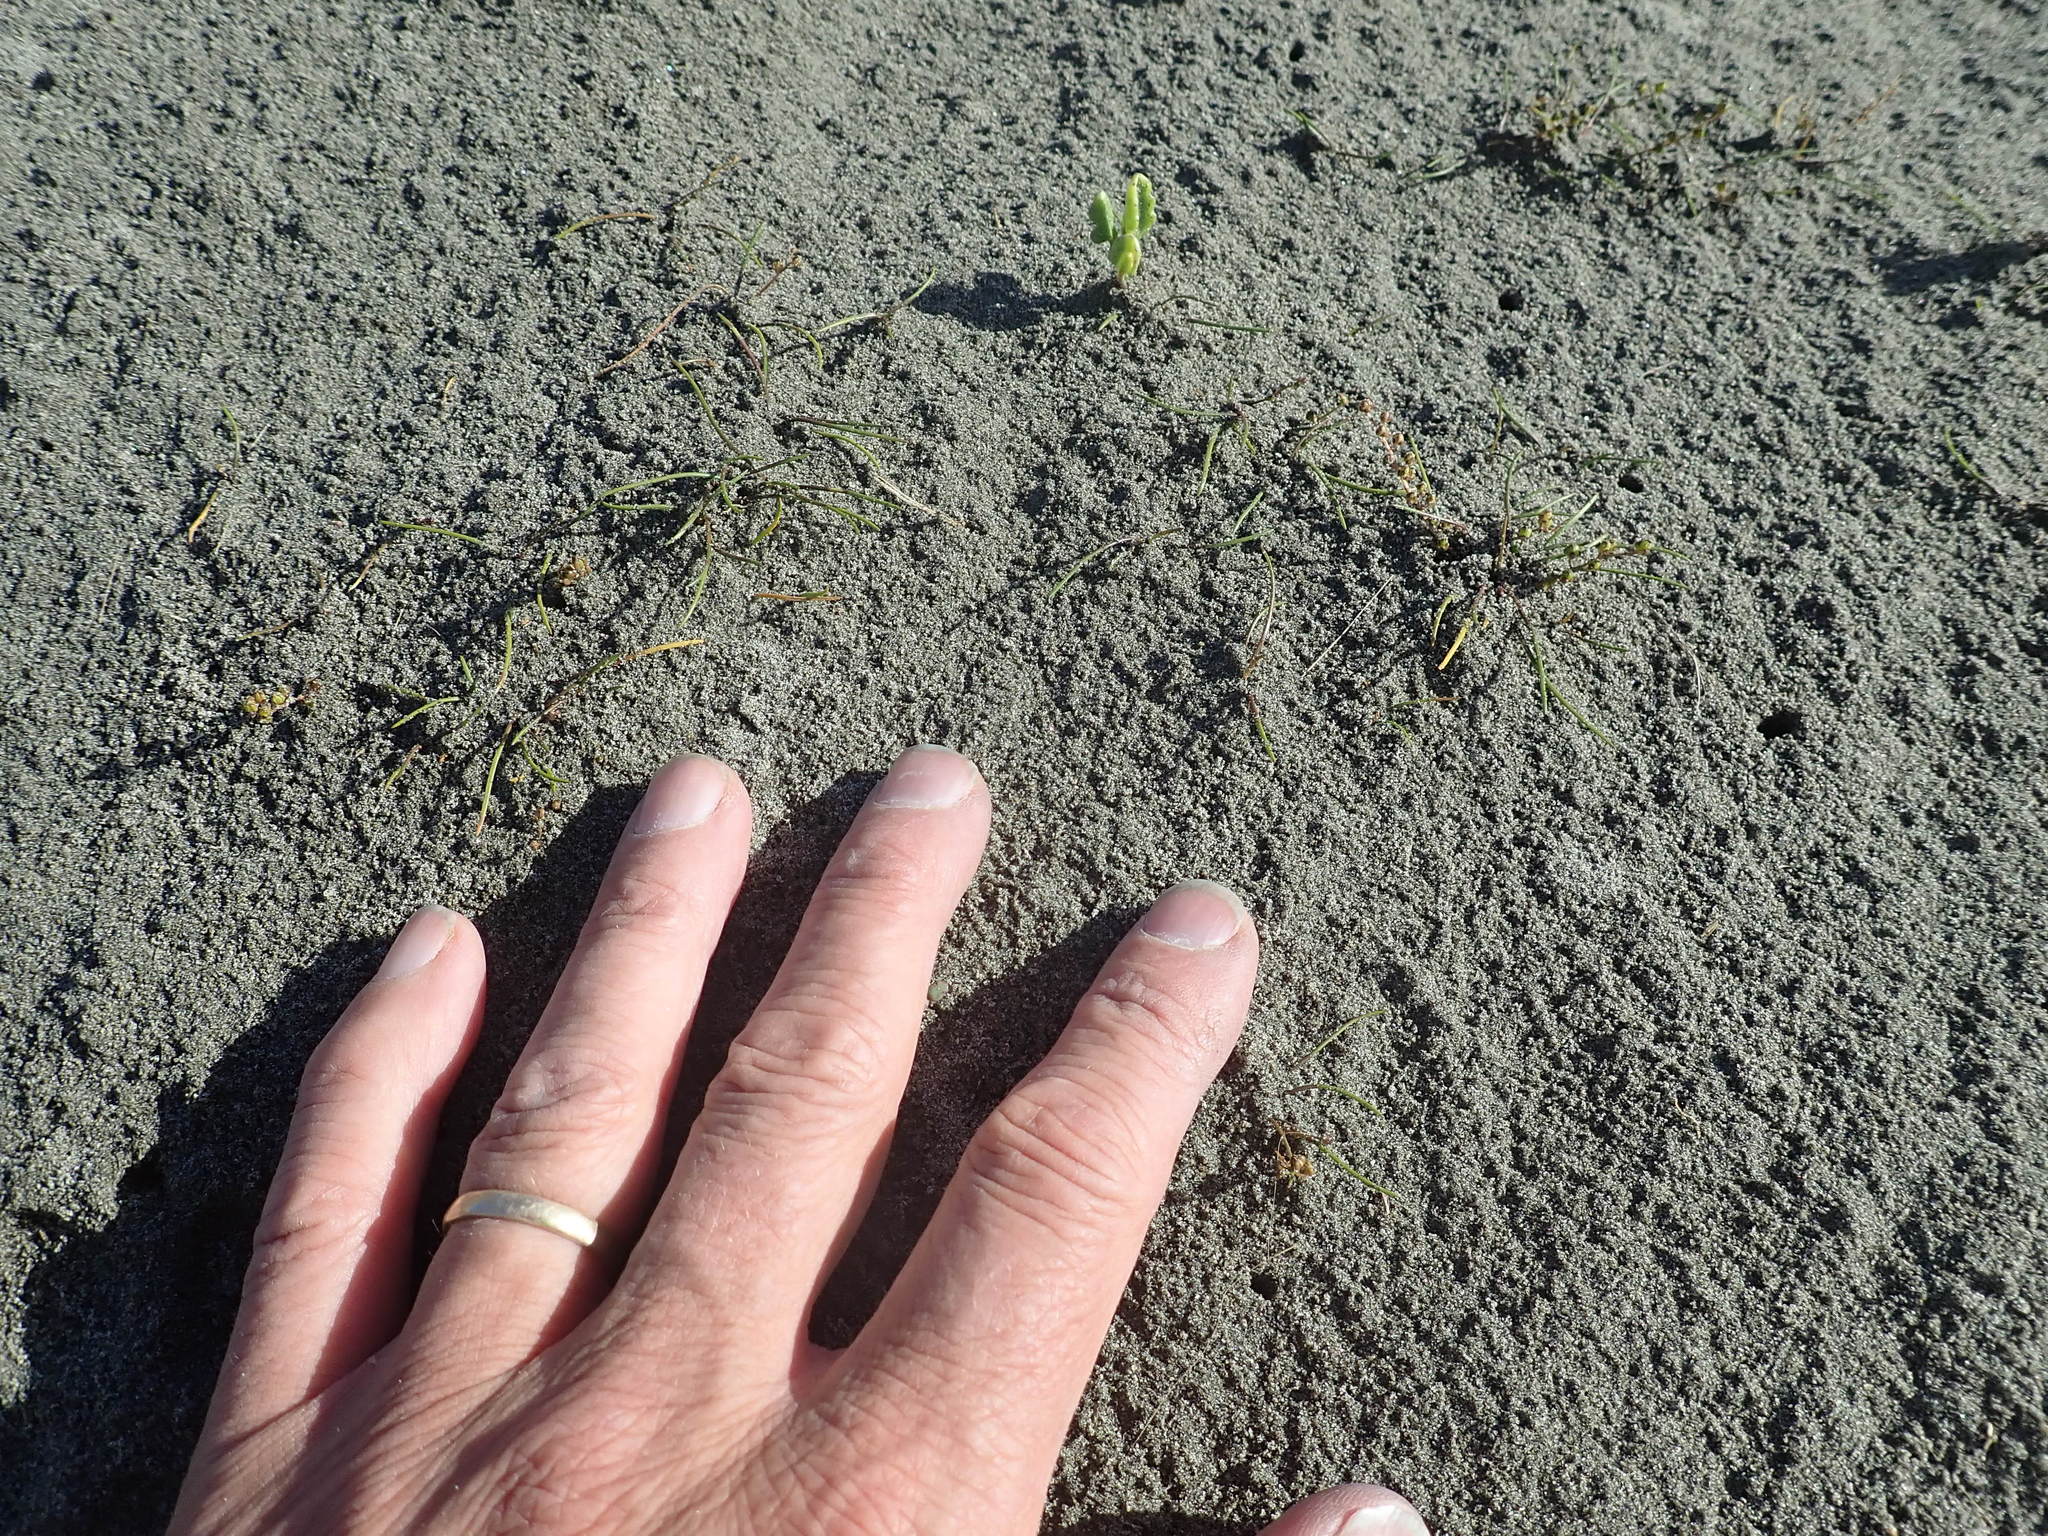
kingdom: Plantae
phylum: Tracheophyta
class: Liliopsida
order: Alismatales
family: Juncaginaceae
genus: Triglochin
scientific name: Triglochin striata
